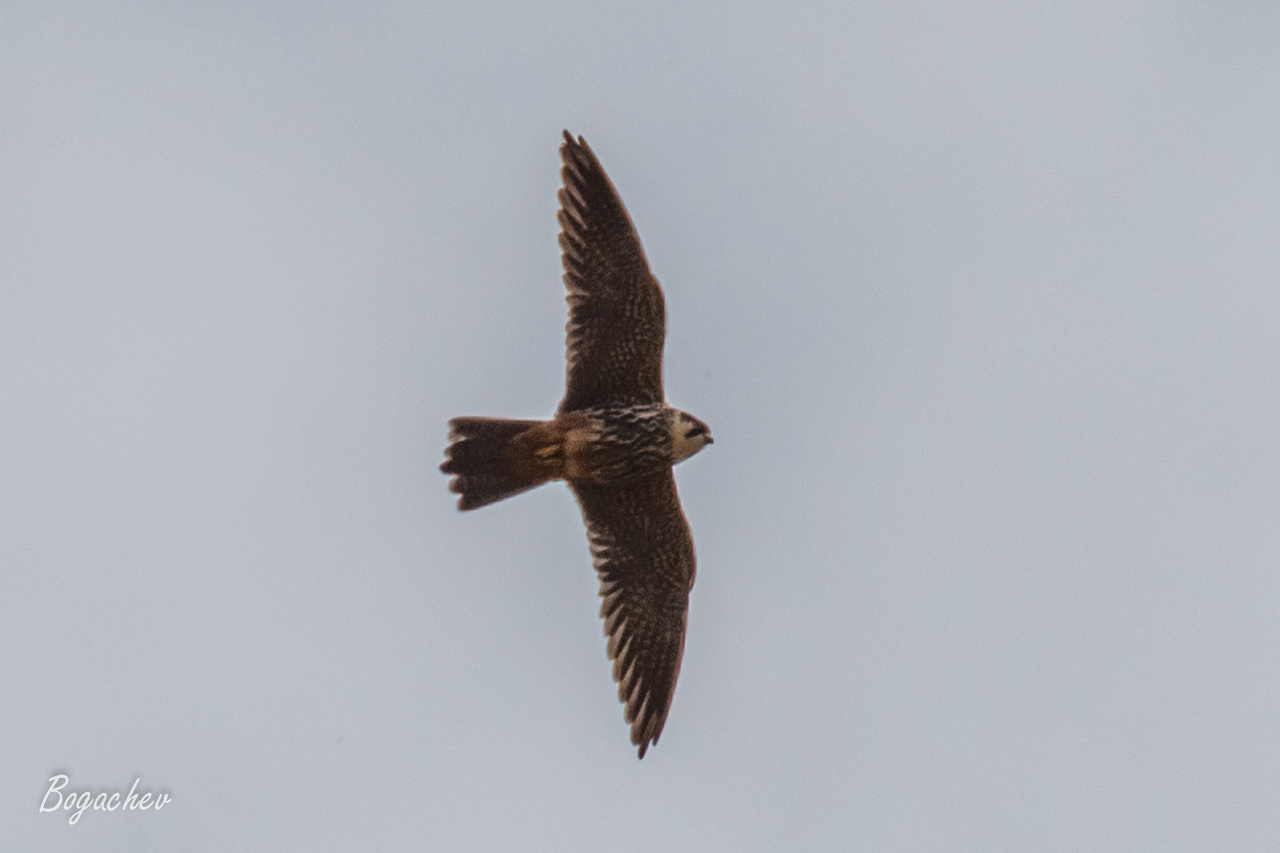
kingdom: Animalia
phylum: Chordata
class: Aves
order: Falconiformes
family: Falconidae
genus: Falco
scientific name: Falco subbuteo
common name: Eurasian hobby
